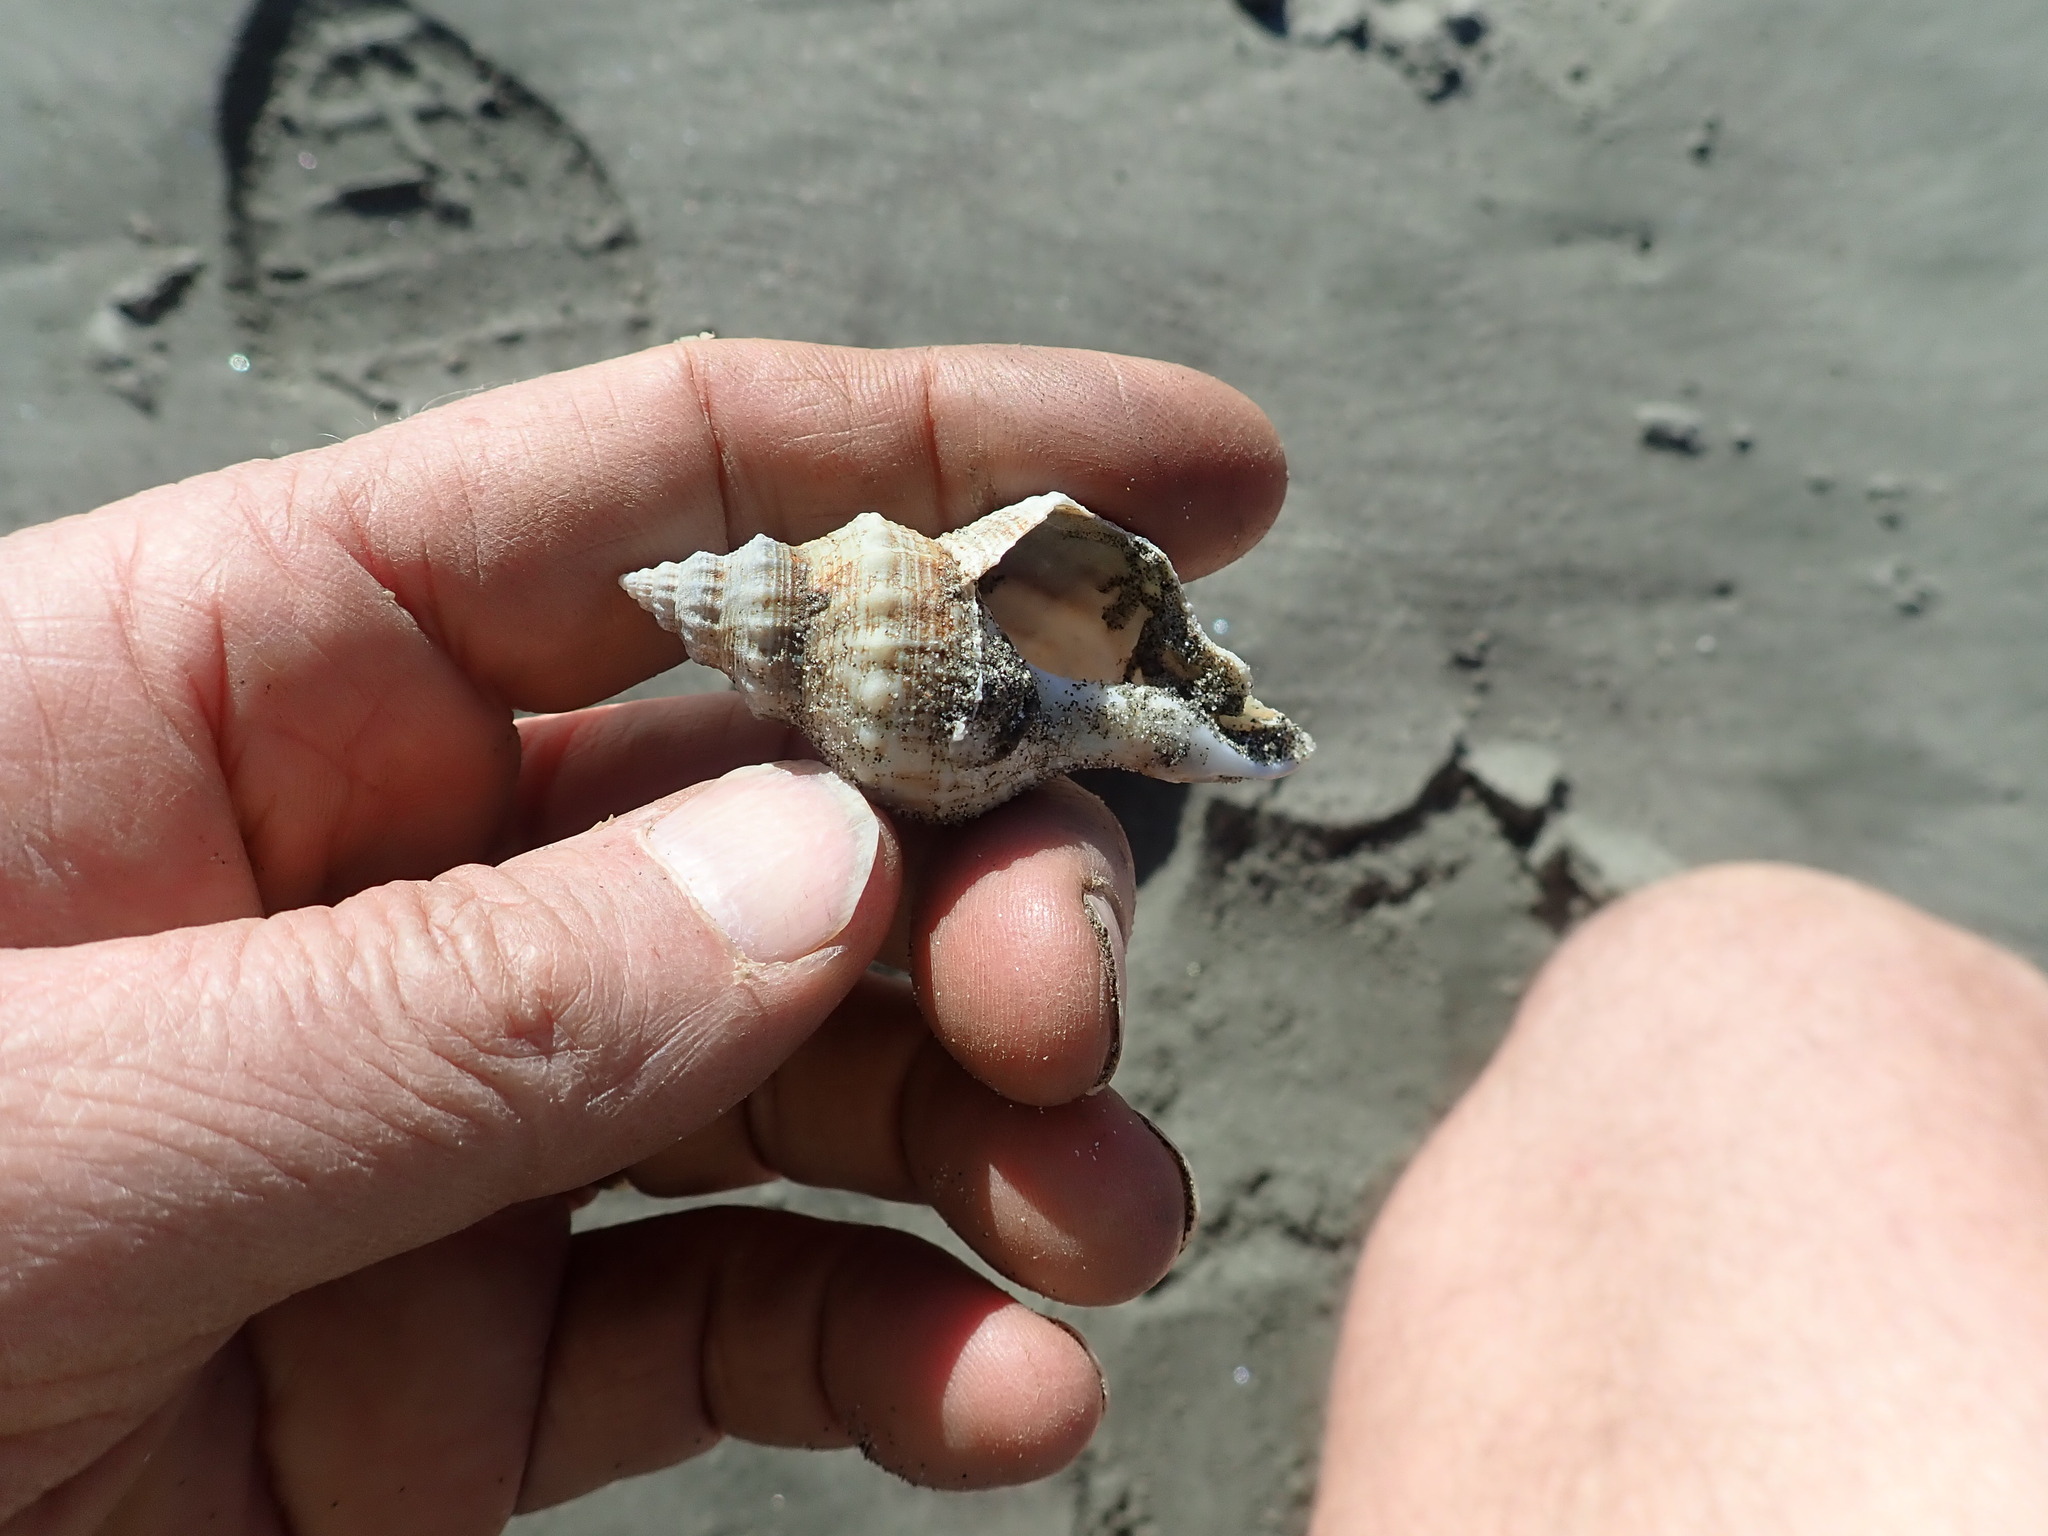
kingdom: Animalia
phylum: Mollusca
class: Gastropoda
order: Neogastropoda
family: Prosiphonidae
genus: Austrofusus
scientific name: Austrofusus glans
